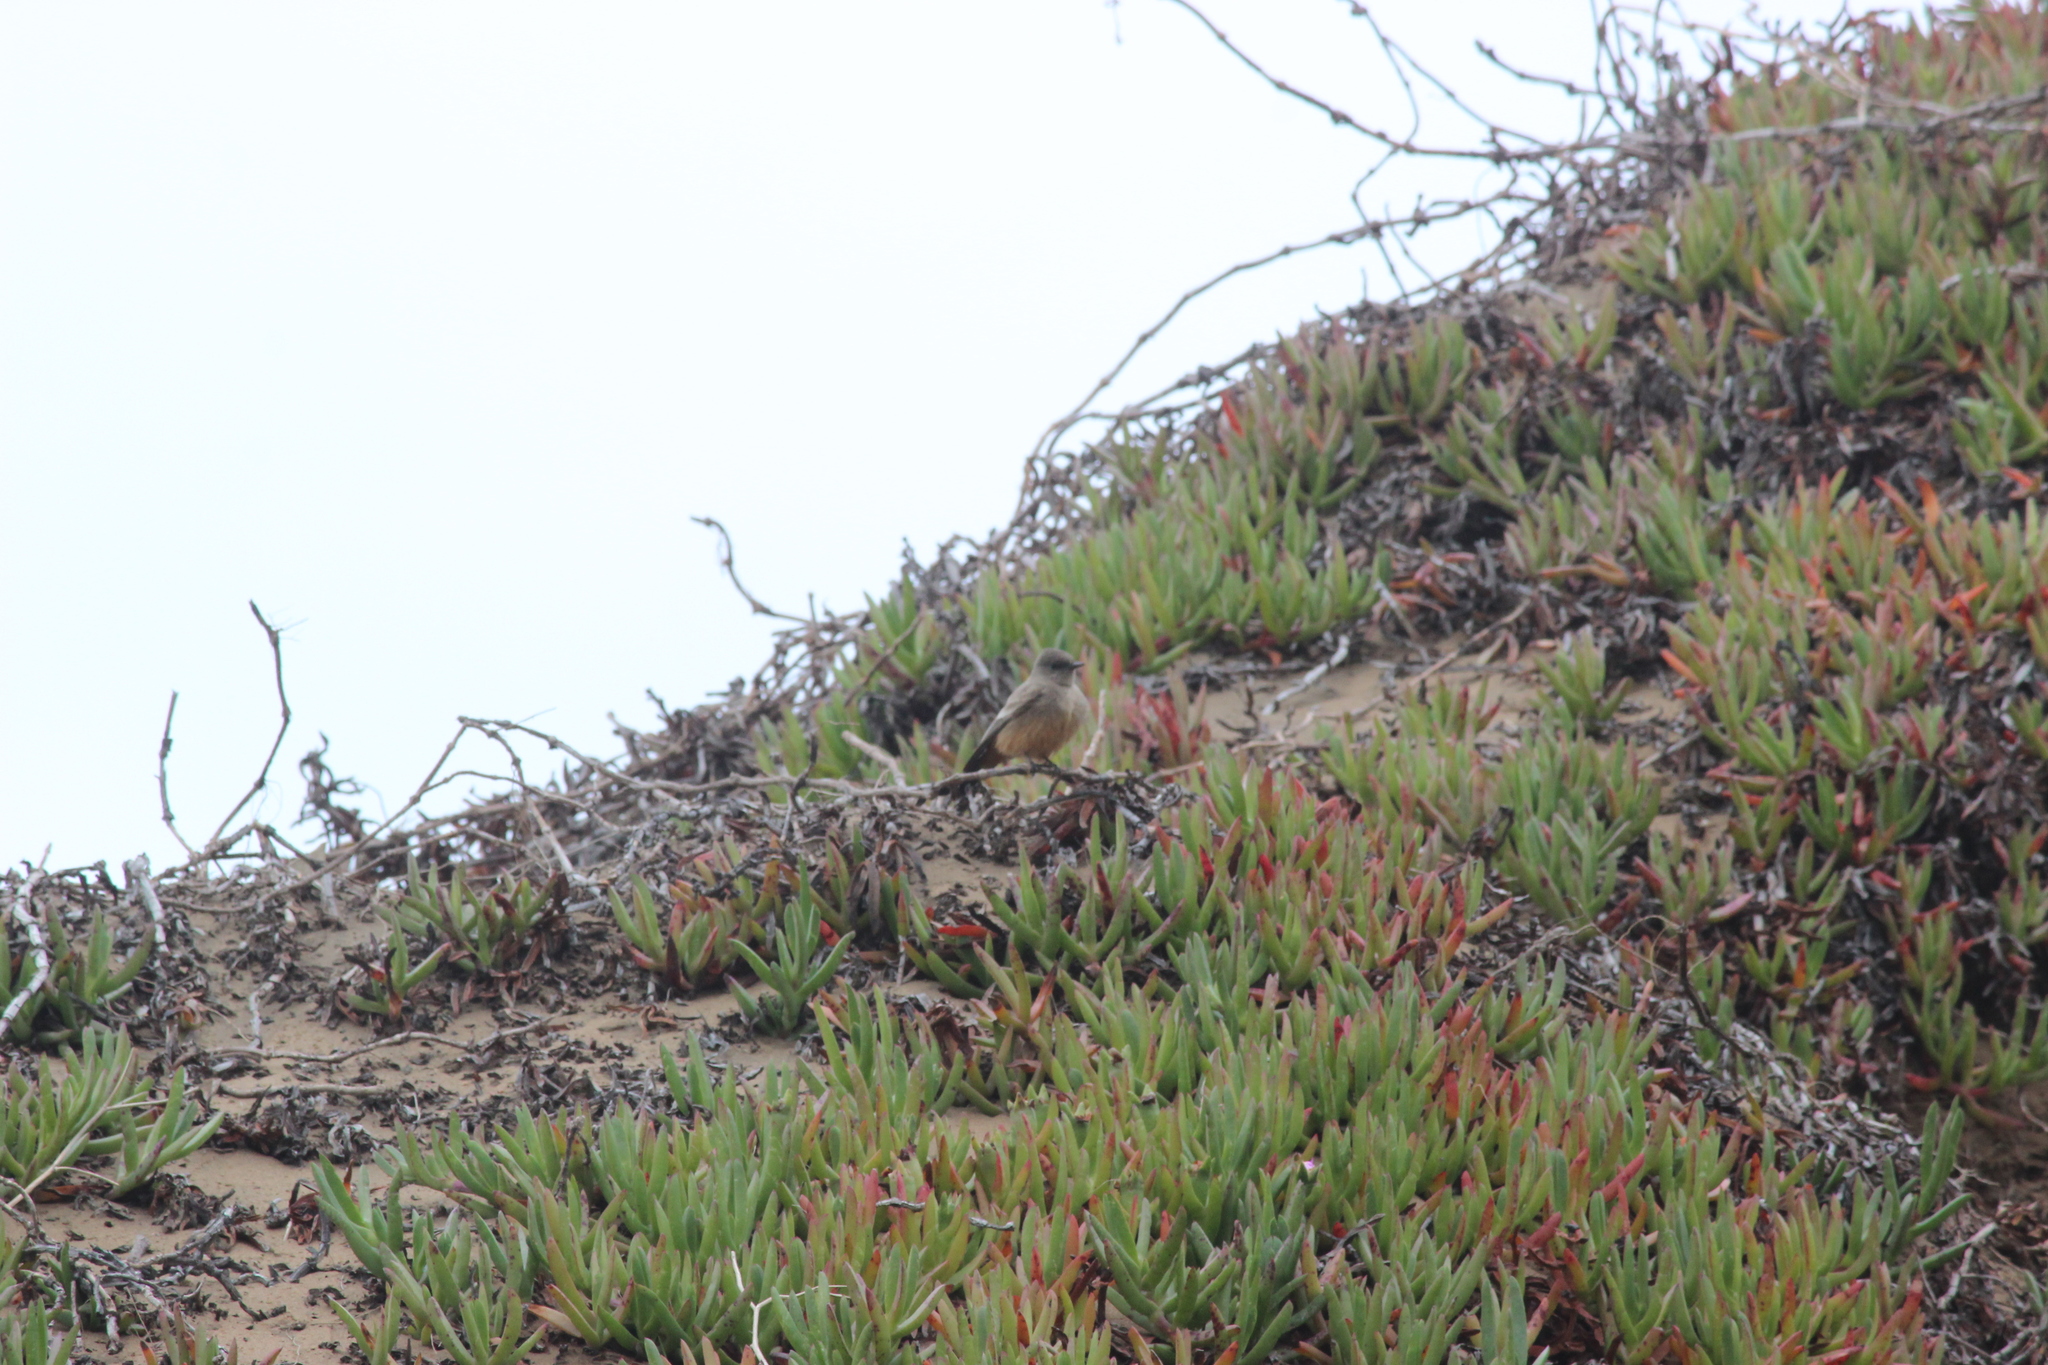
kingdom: Animalia
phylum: Chordata
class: Aves
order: Passeriformes
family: Tyrannidae
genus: Sayornis
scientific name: Sayornis saya
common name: Say's phoebe
